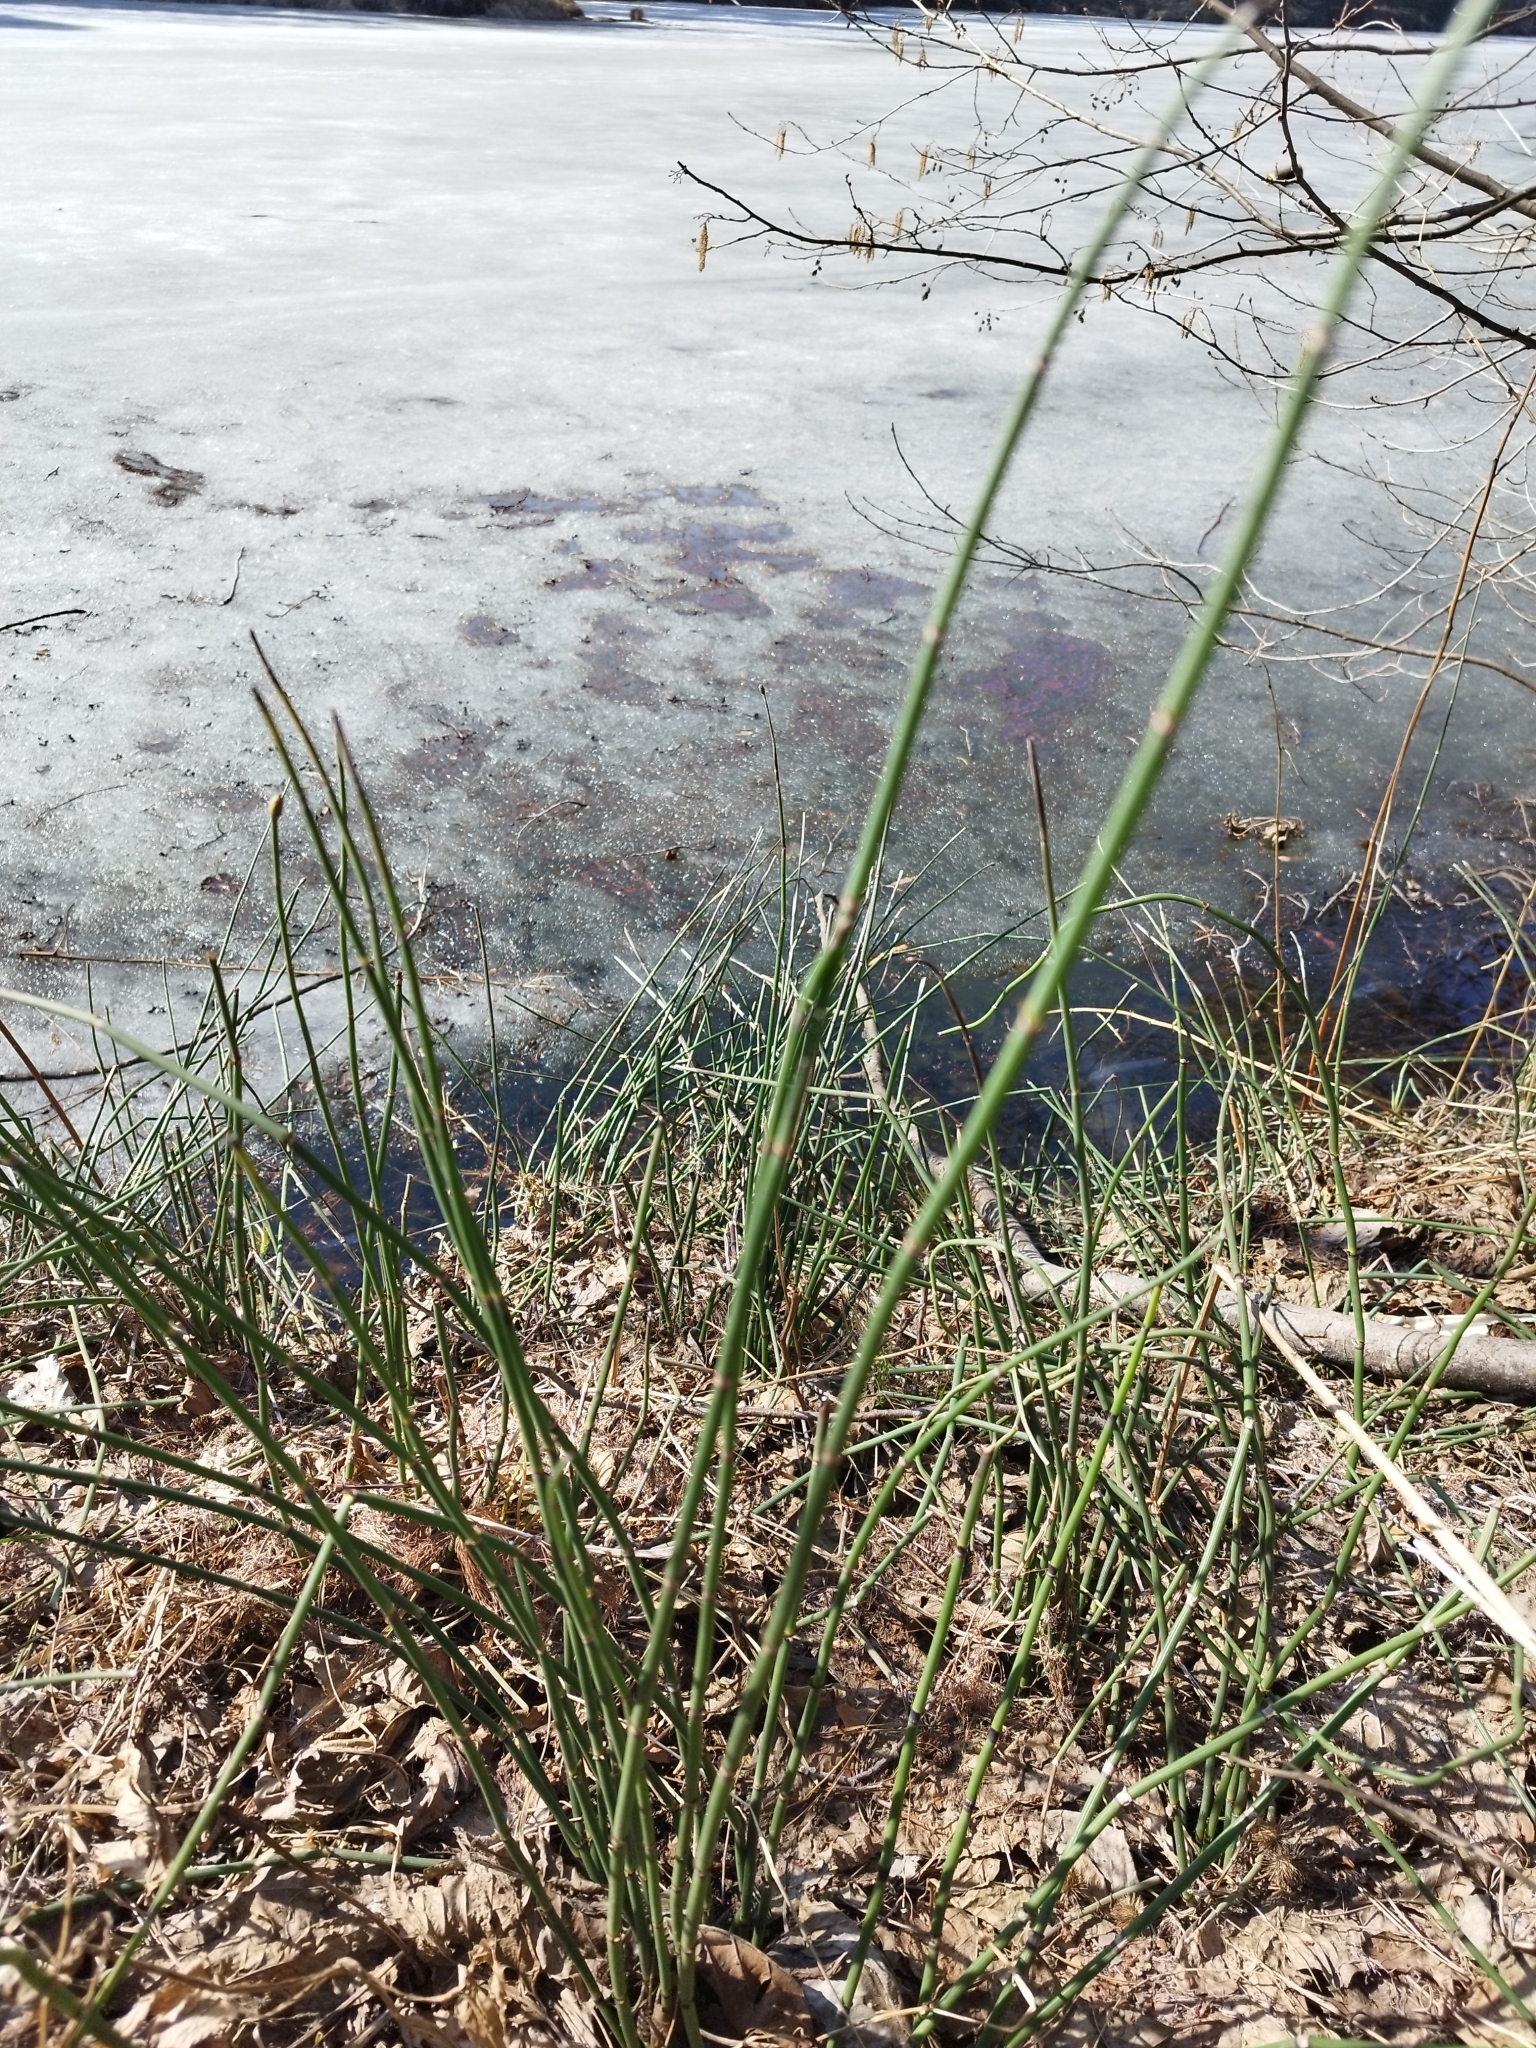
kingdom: Plantae
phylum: Tracheophyta
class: Polypodiopsida
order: Equisetales
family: Equisetaceae
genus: Equisetum
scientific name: Equisetum hyemale
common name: Rough horsetail
